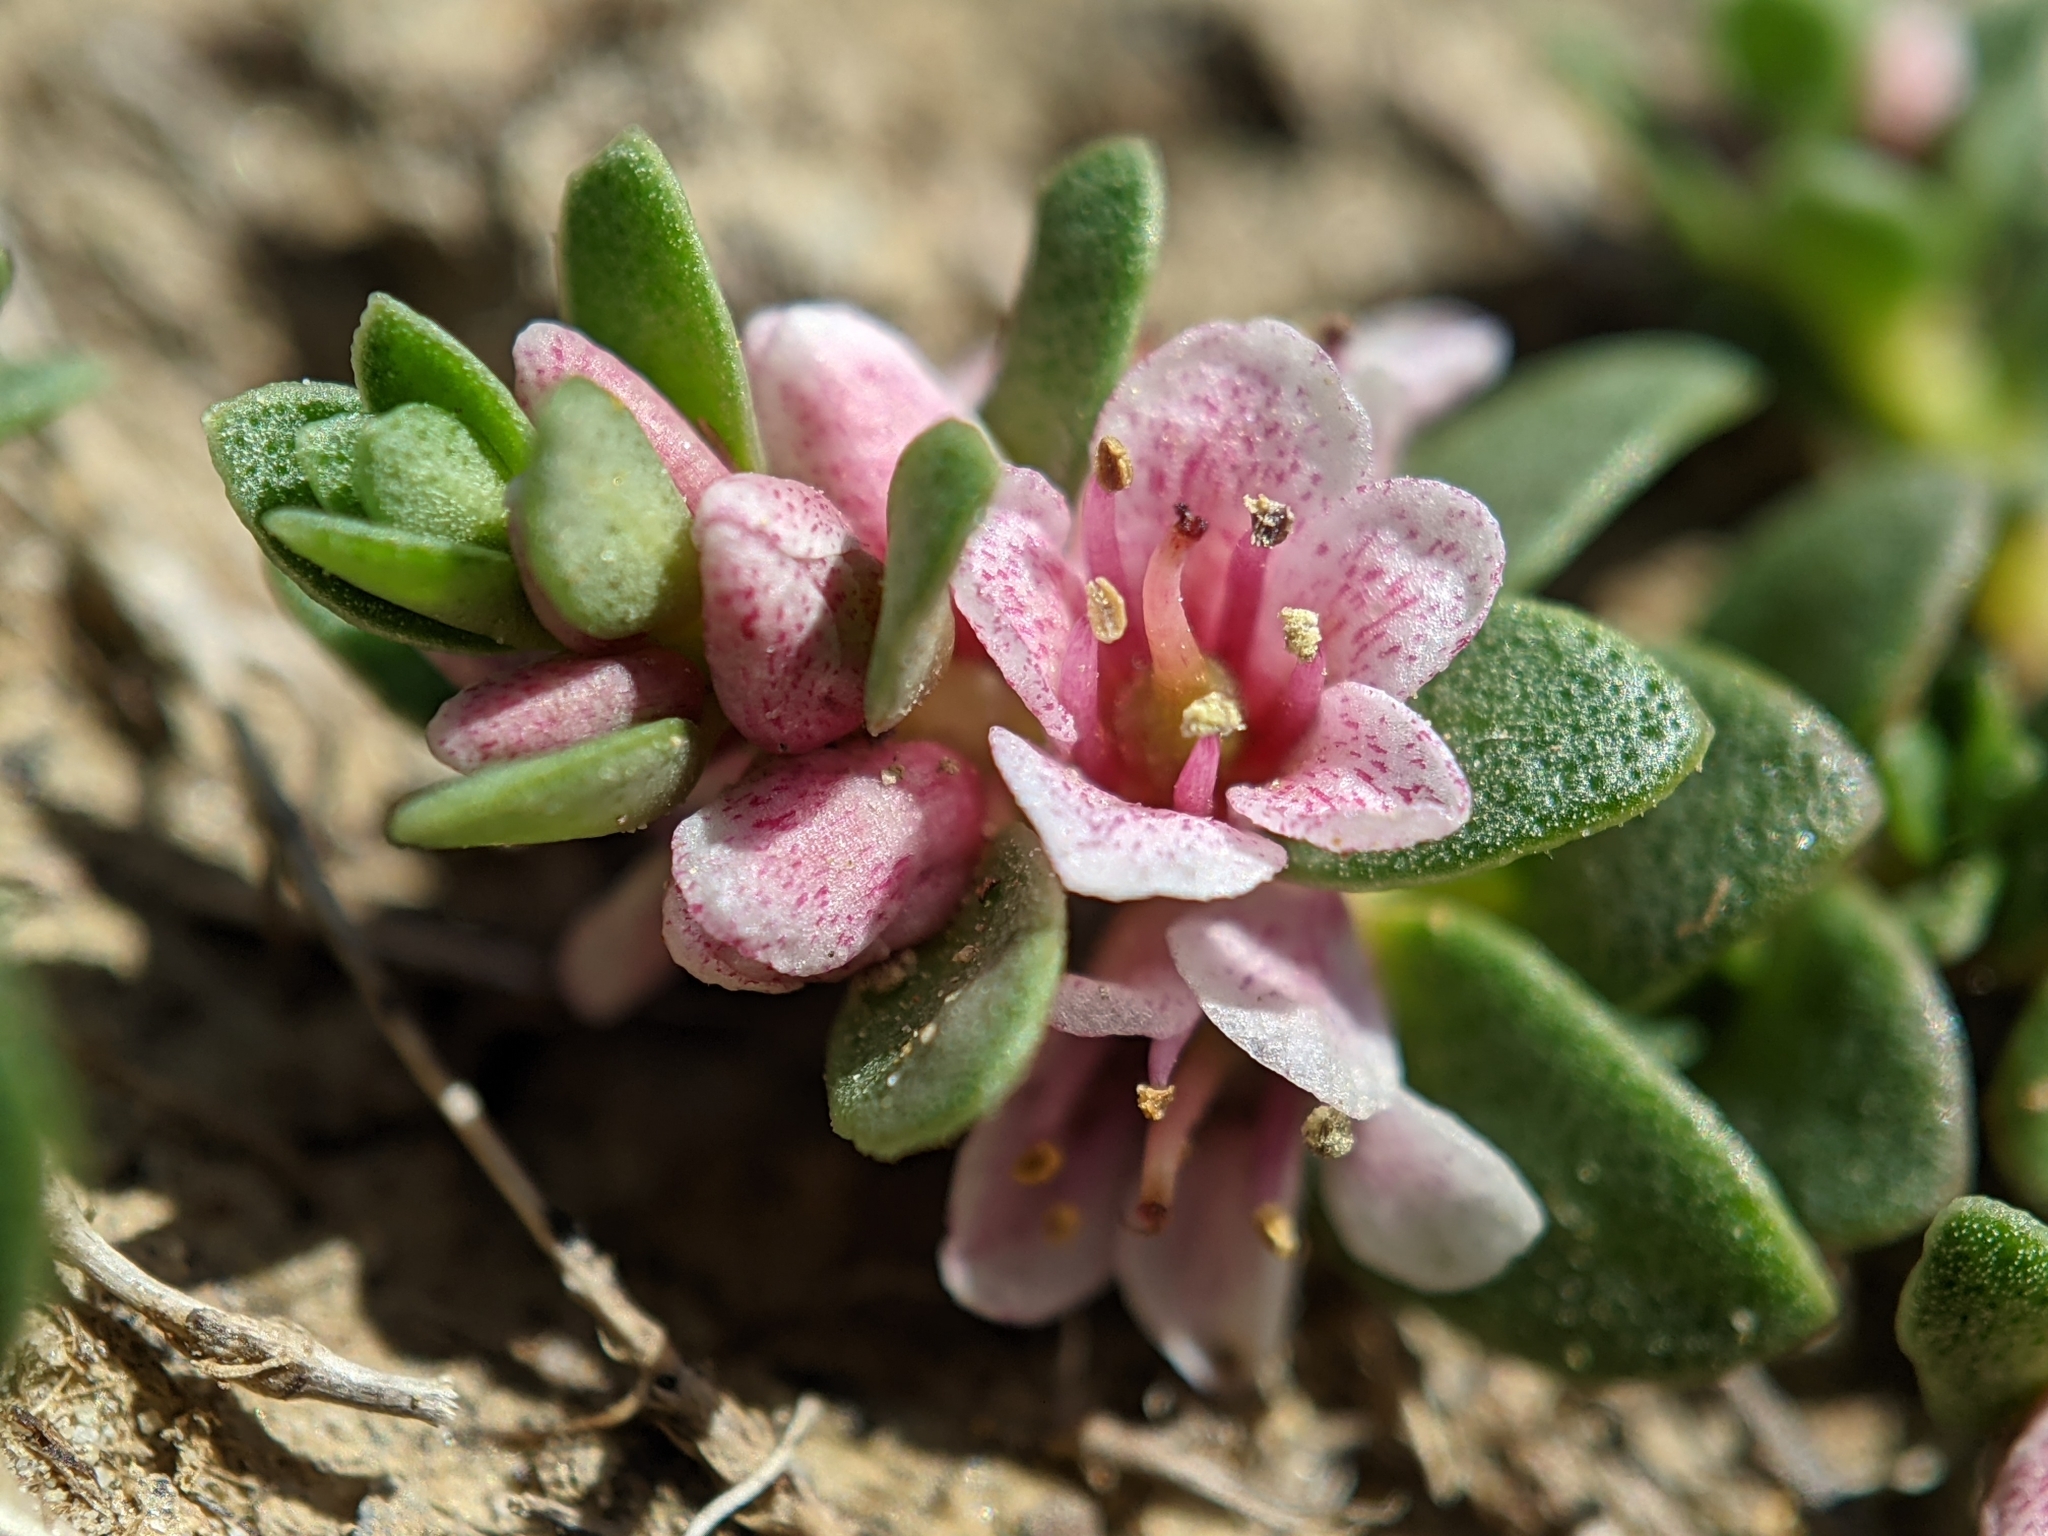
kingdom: Plantae
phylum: Tracheophyta
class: Magnoliopsida
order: Ericales
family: Primulaceae
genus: Lysimachia
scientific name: Lysimachia maritima
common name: Sea milkwort
